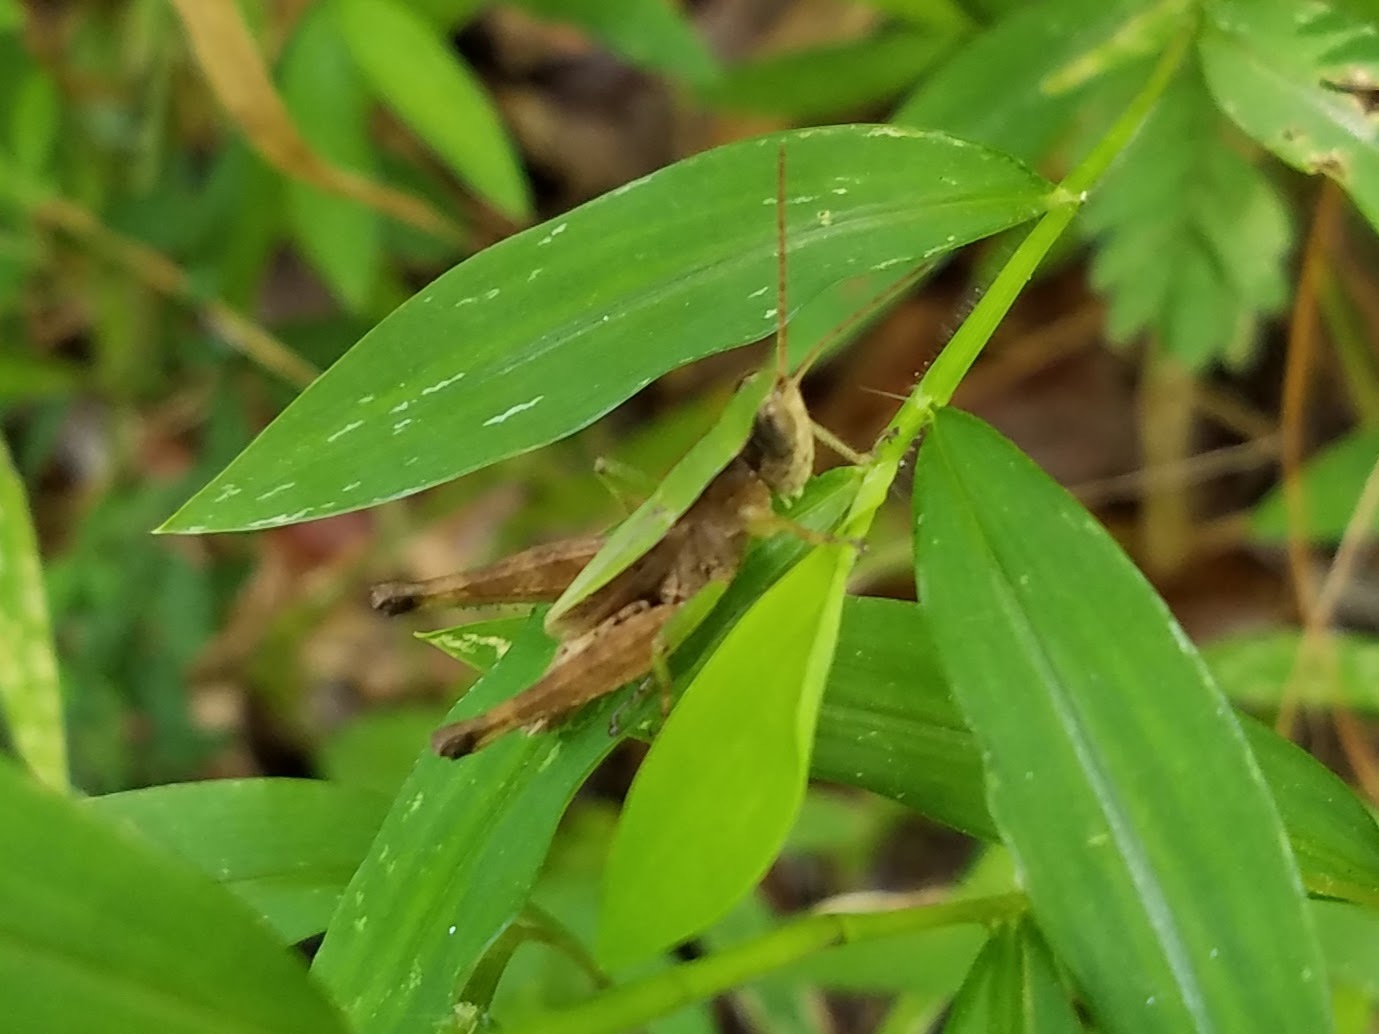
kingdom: Animalia
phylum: Arthropoda
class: Insecta
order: Orthoptera
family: Acrididae
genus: Dichromorpha
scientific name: Dichromorpha viridis
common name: Short-winged green grasshopper
